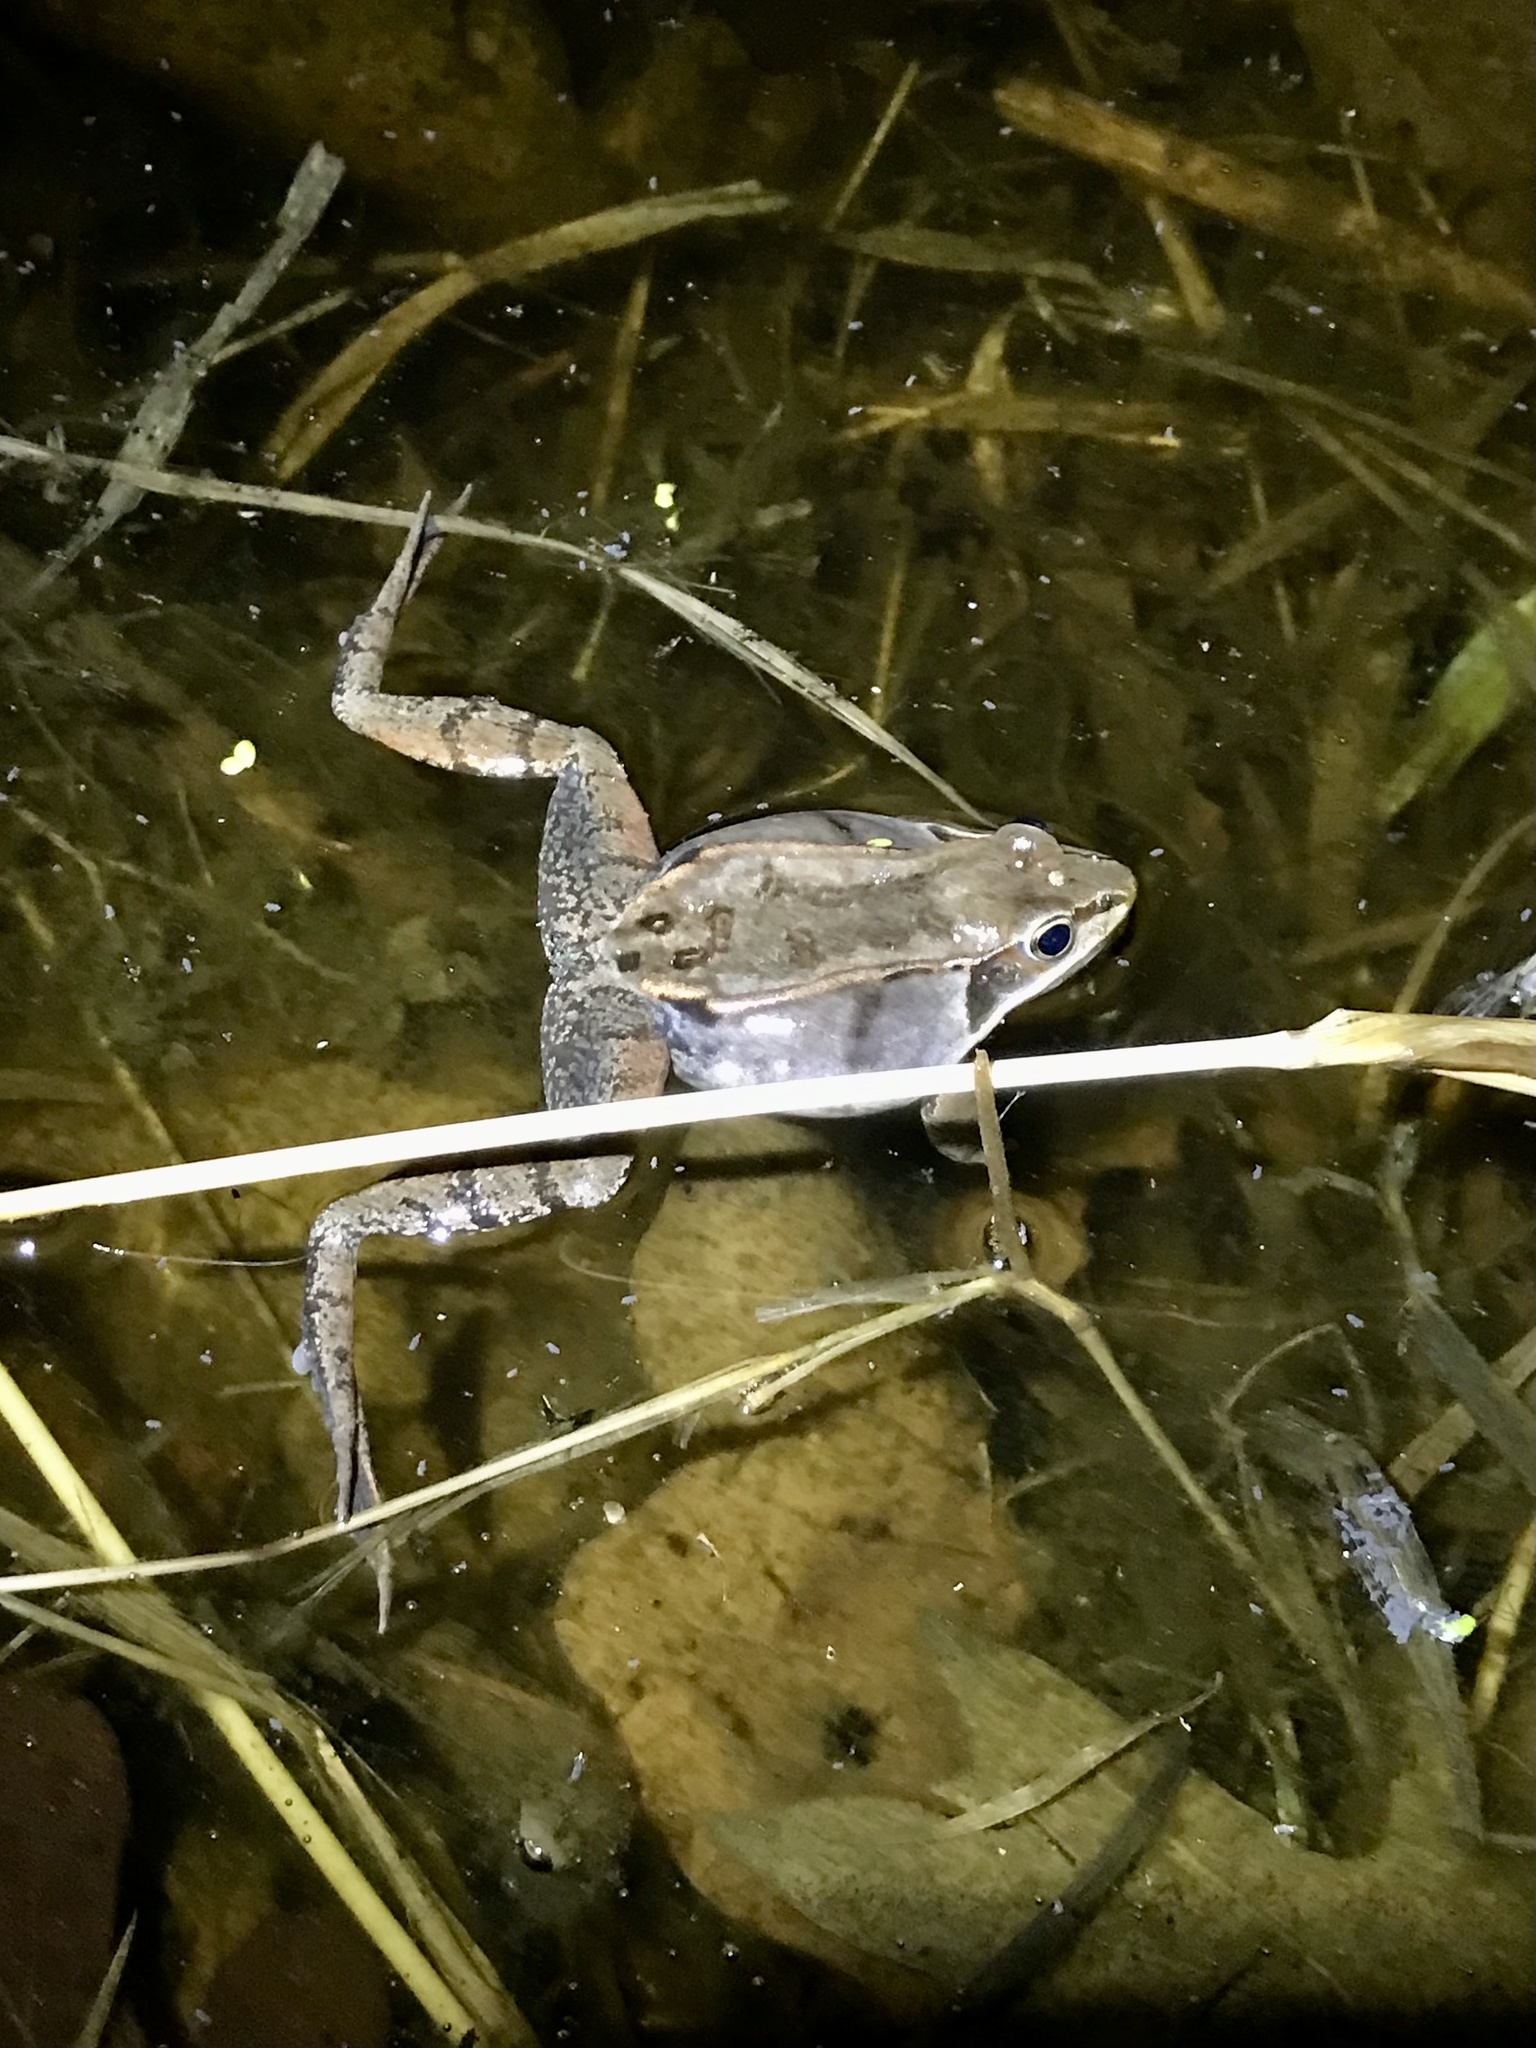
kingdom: Animalia
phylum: Chordata
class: Amphibia
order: Anura
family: Ranidae
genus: Lithobates
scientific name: Lithobates sylvaticus
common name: Wood frog
